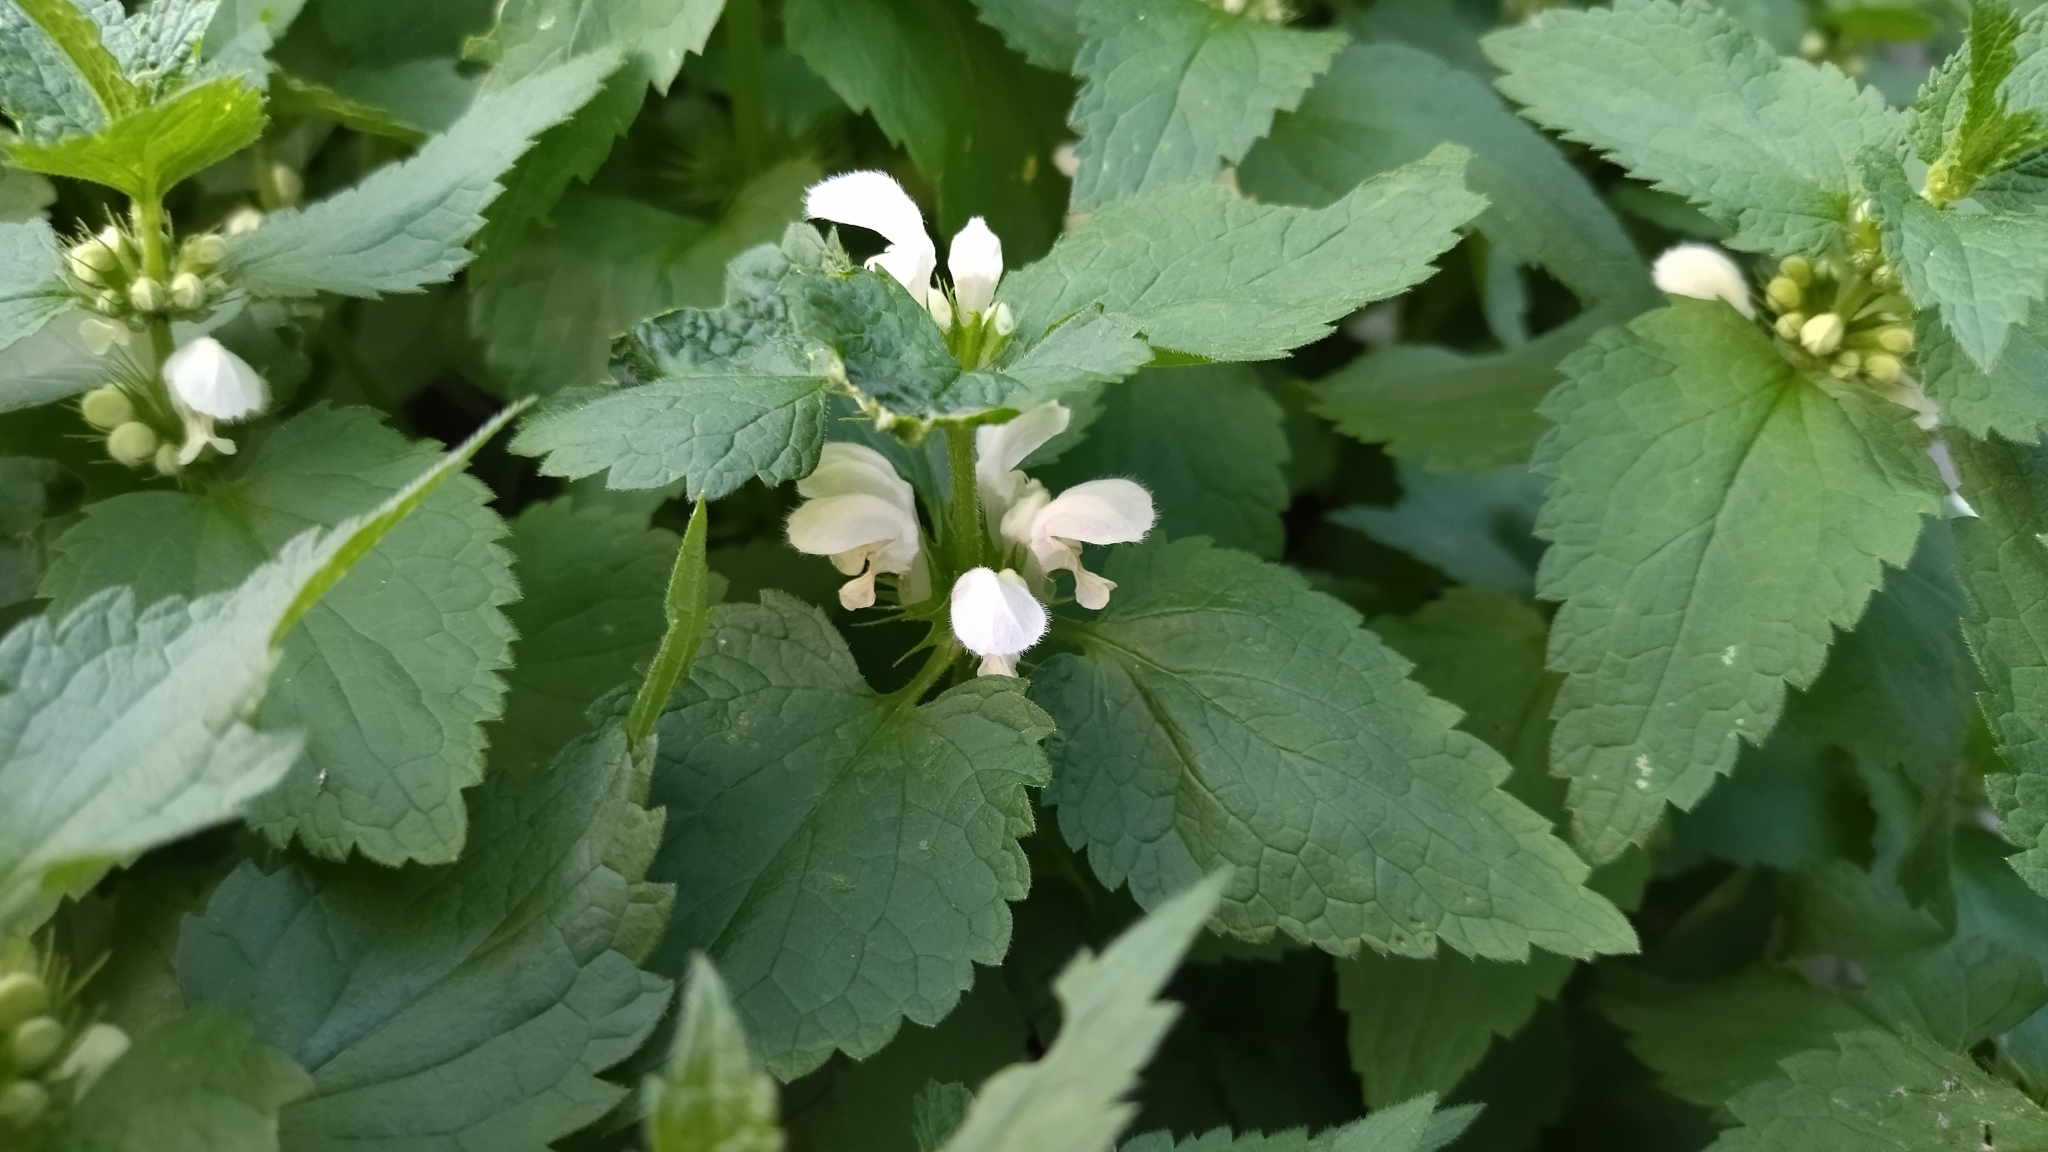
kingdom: Plantae
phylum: Tracheophyta
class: Magnoliopsida
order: Lamiales
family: Lamiaceae
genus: Lamium
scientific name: Lamium album
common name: White dead-nettle
